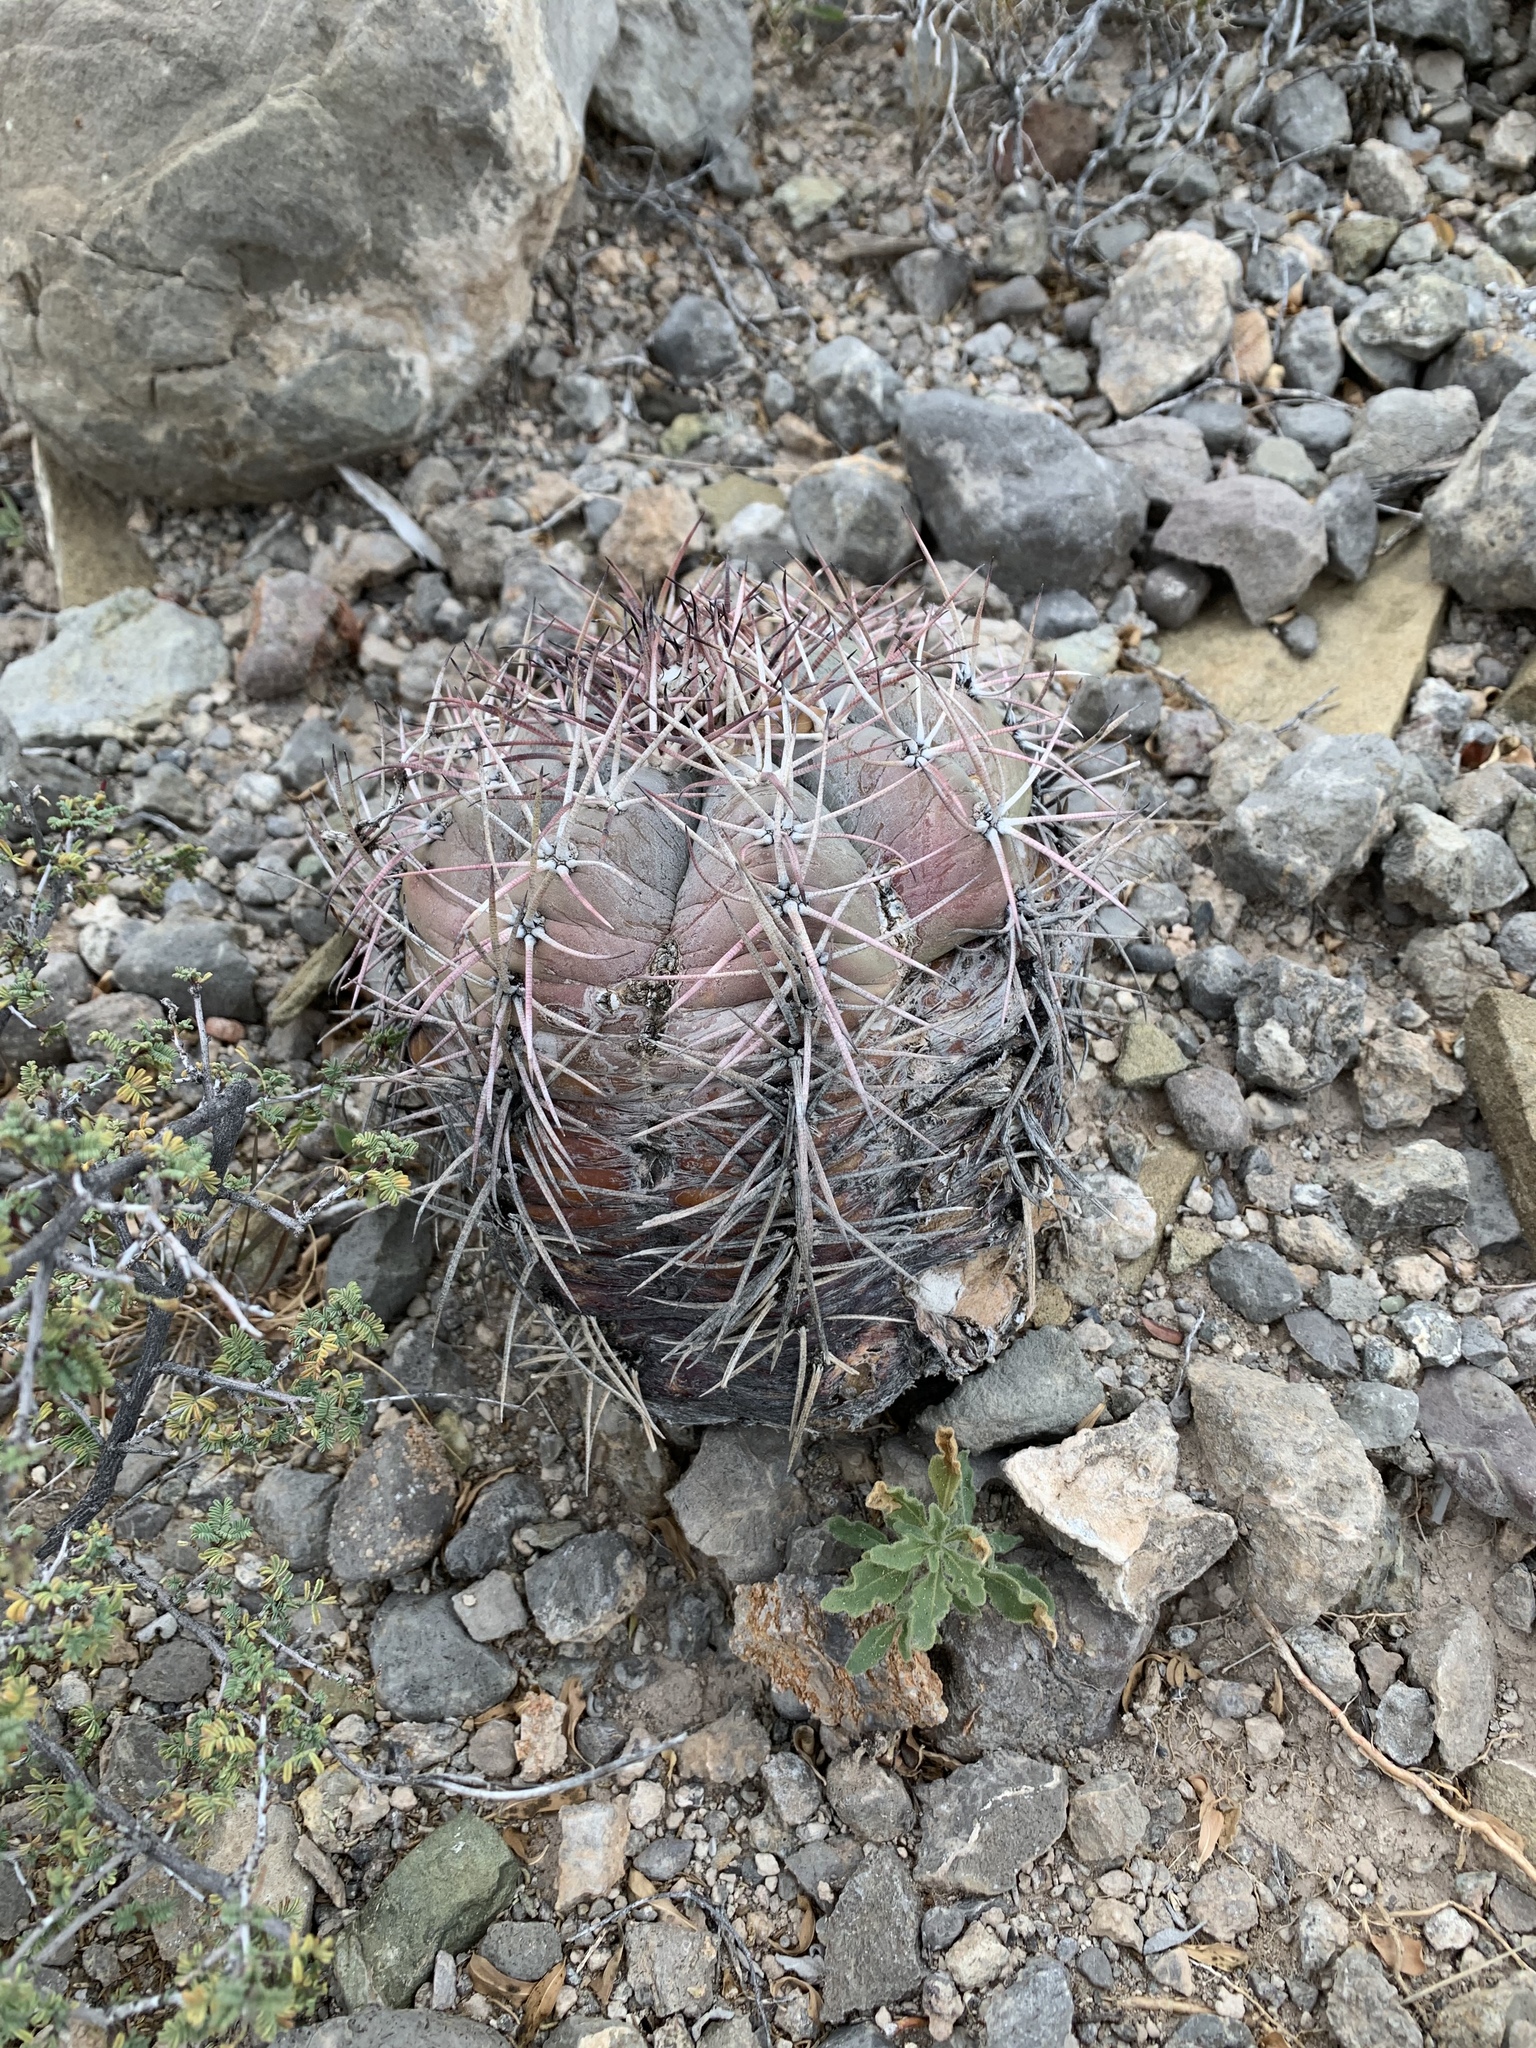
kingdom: Plantae
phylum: Tracheophyta
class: Magnoliopsida
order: Caryophyllales
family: Cactaceae
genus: Echinocactus
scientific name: Echinocactus horizonthalonius
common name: Devilshead
